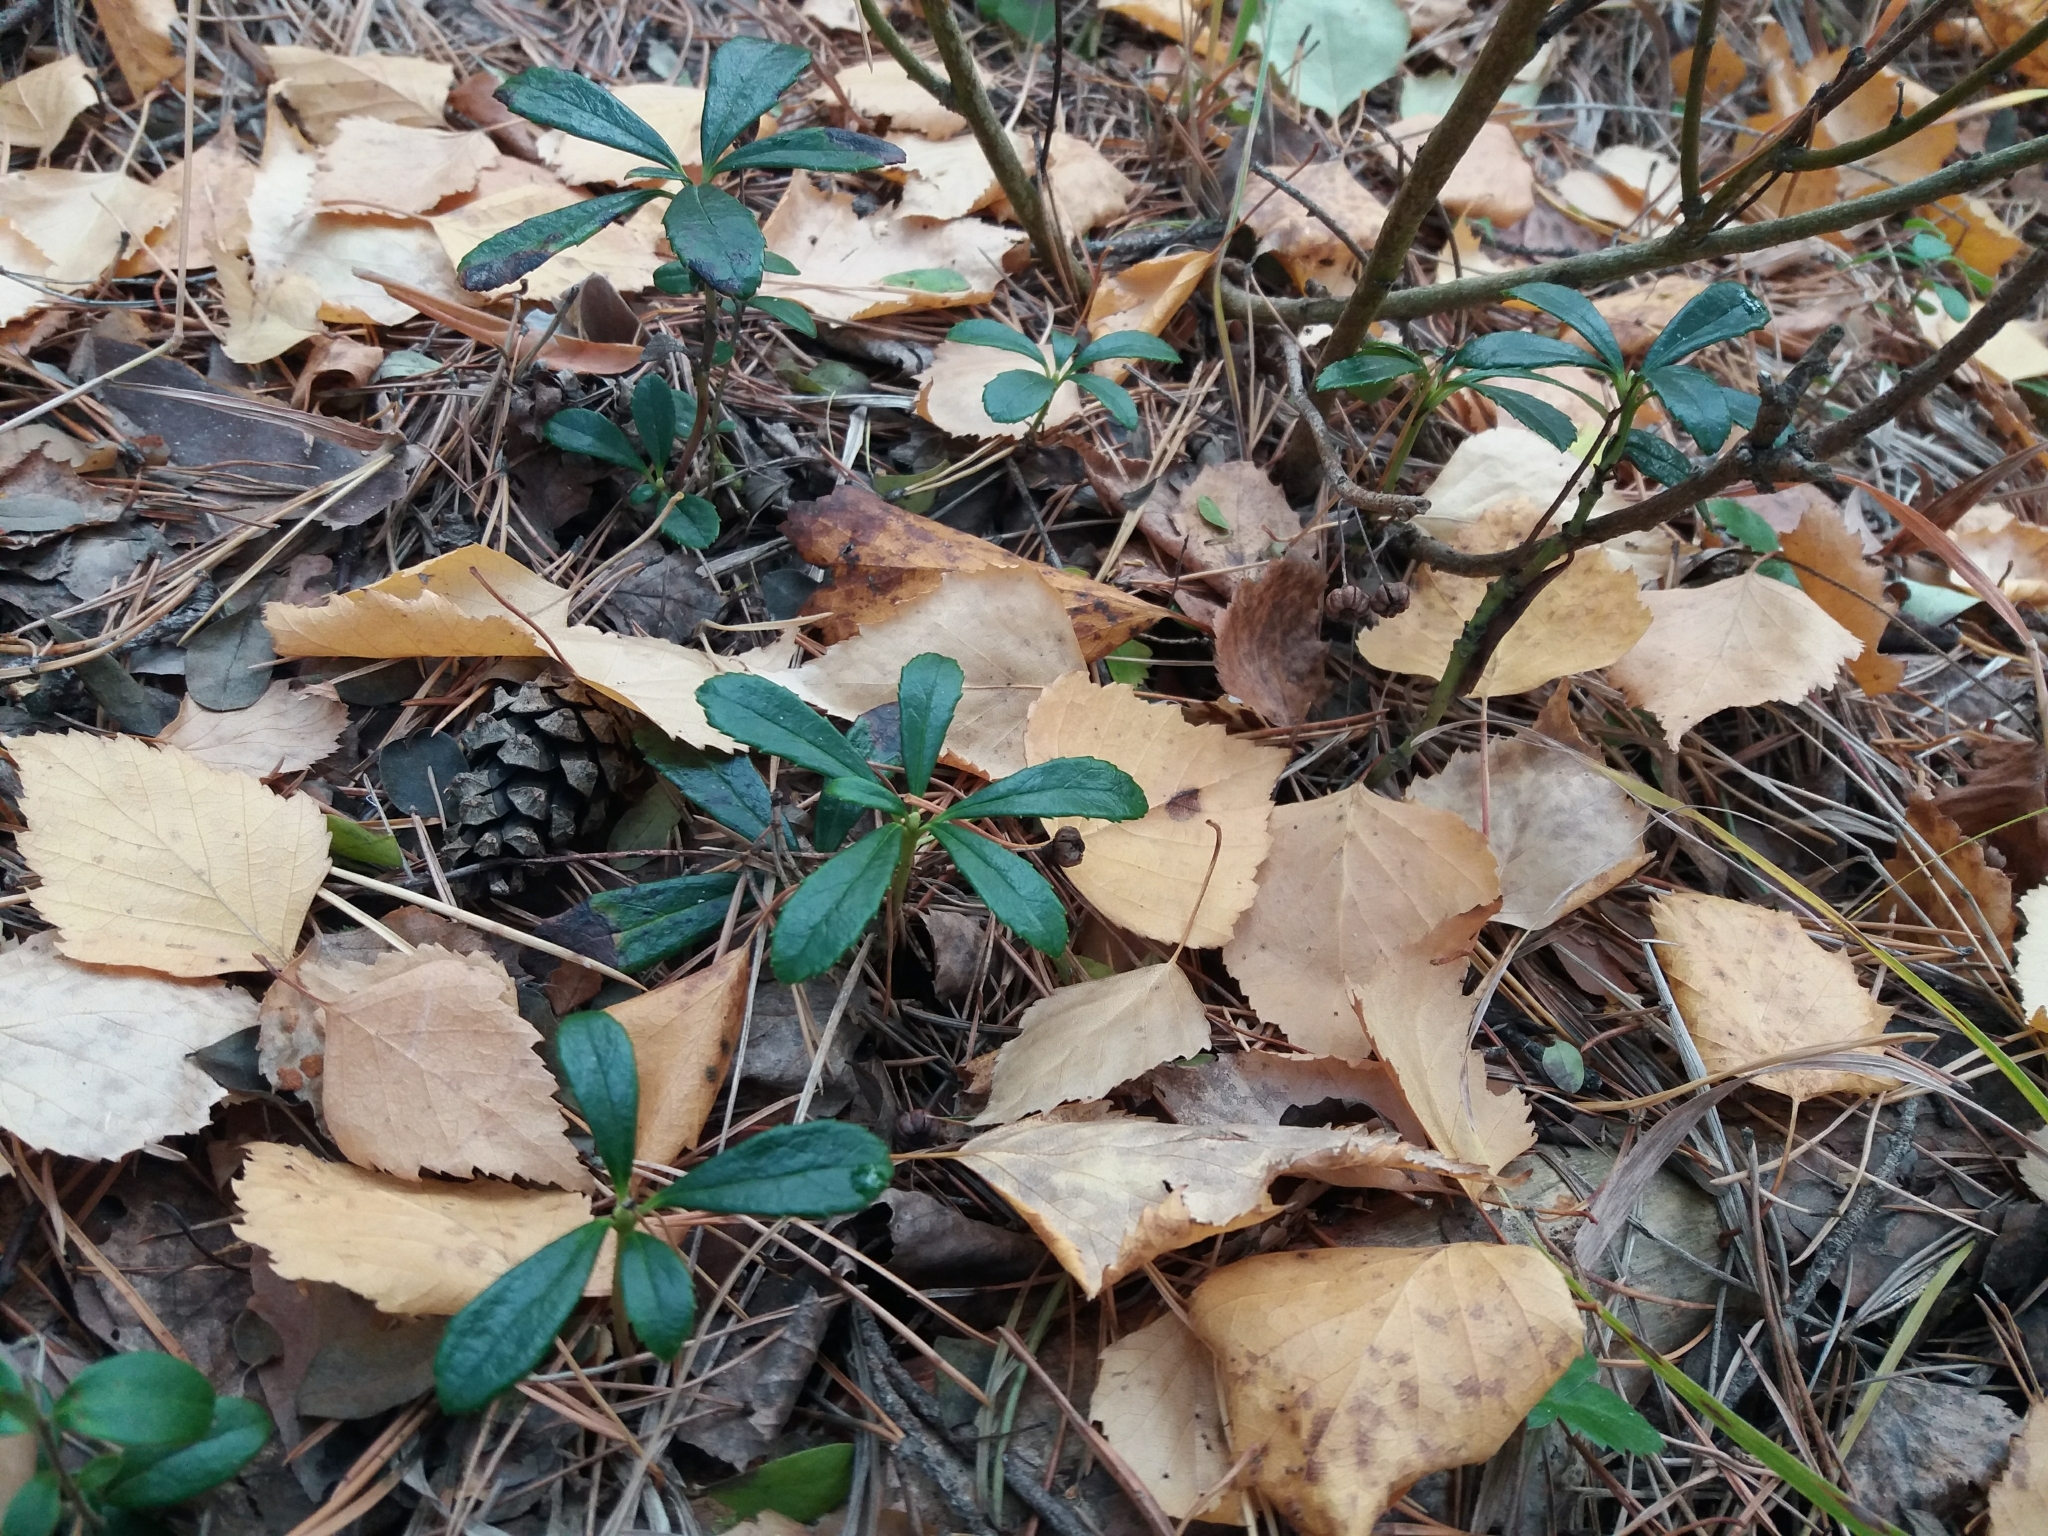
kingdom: Plantae
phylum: Tracheophyta
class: Magnoliopsida
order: Ericales
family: Ericaceae
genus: Chimaphila
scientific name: Chimaphila umbellata
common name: Pipsissewa
